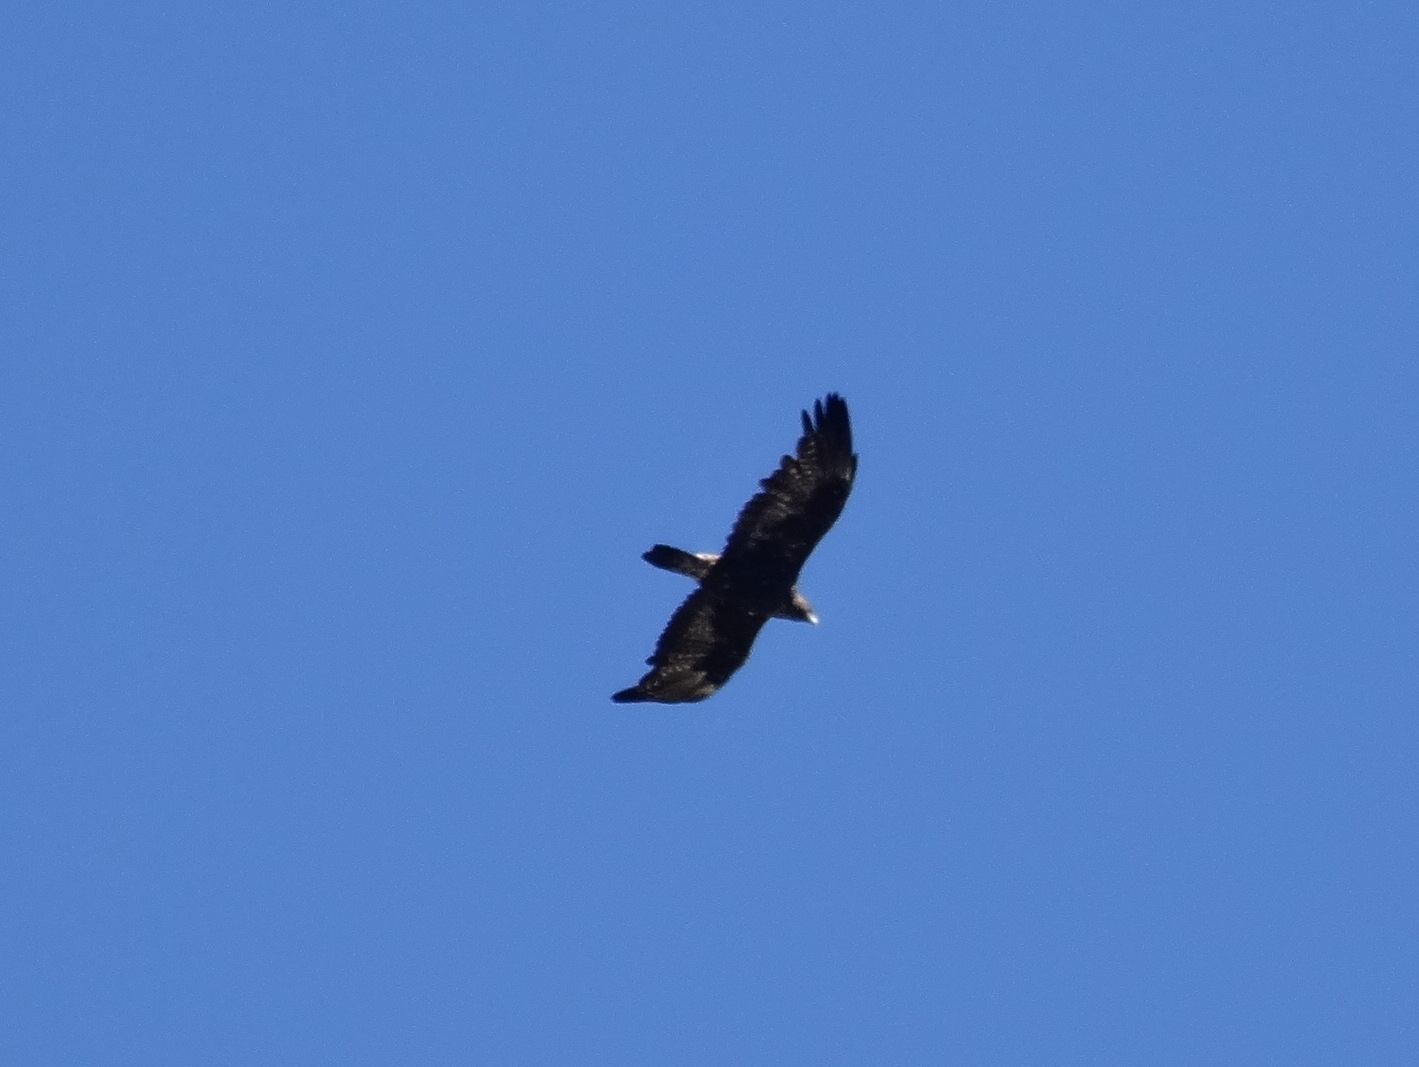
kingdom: Animalia
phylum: Chordata
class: Aves
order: Accipitriformes
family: Accipitridae
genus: Aquila
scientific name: Aquila chrysaetos
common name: Golden eagle
